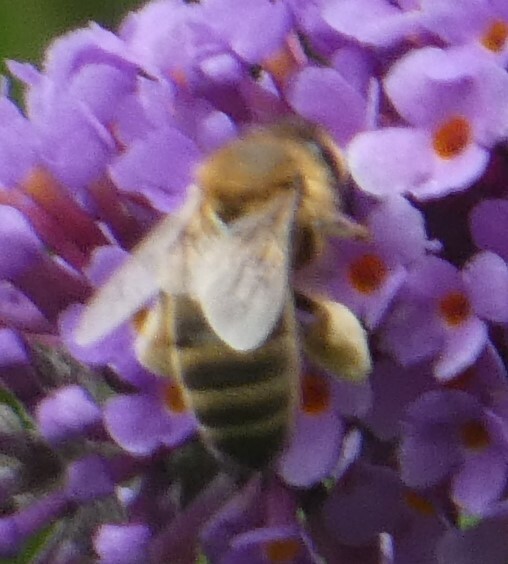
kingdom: Animalia
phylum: Arthropoda
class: Insecta
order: Hymenoptera
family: Apidae
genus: Apis
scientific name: Apis mellifera
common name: Honey bee
